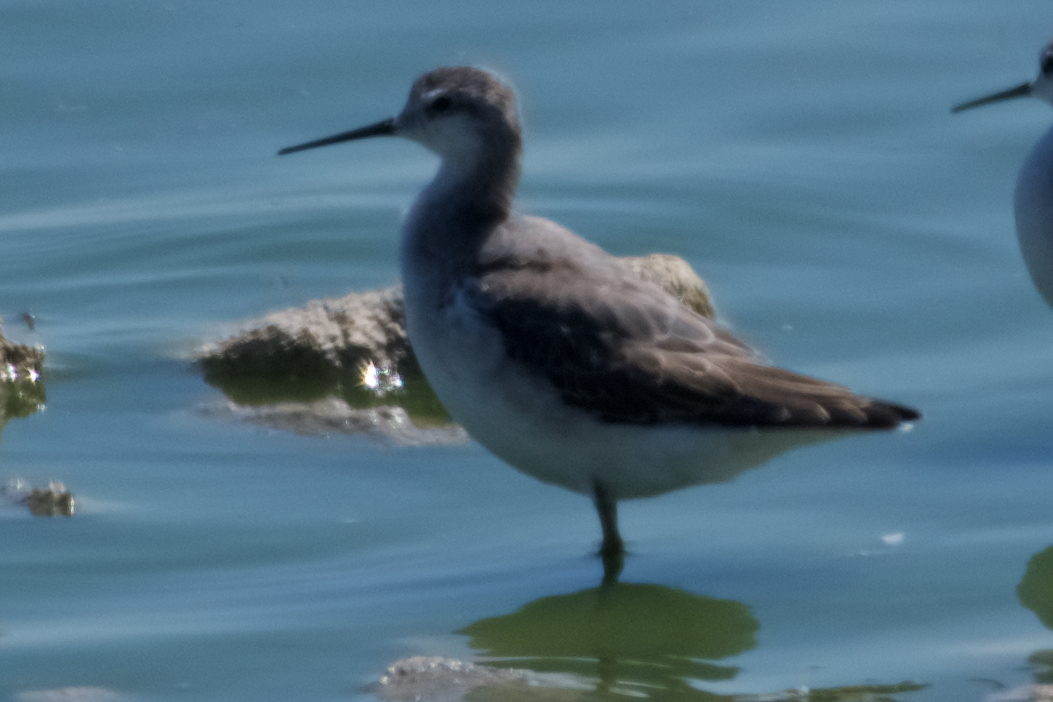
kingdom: Animalia
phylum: Chordata
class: Aves
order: Charadriiformes
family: Scolopacidae
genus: Phalaropus
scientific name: Phalaropus tricolor
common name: Wilson's phalarope
